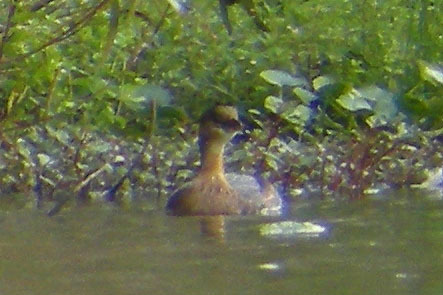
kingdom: Animalia
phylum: Chordata
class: Aves
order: Podicipediformes
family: Podicipedidae
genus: Podilymbus
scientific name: Podilymbus podiceps
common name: Pied-billed grebe
